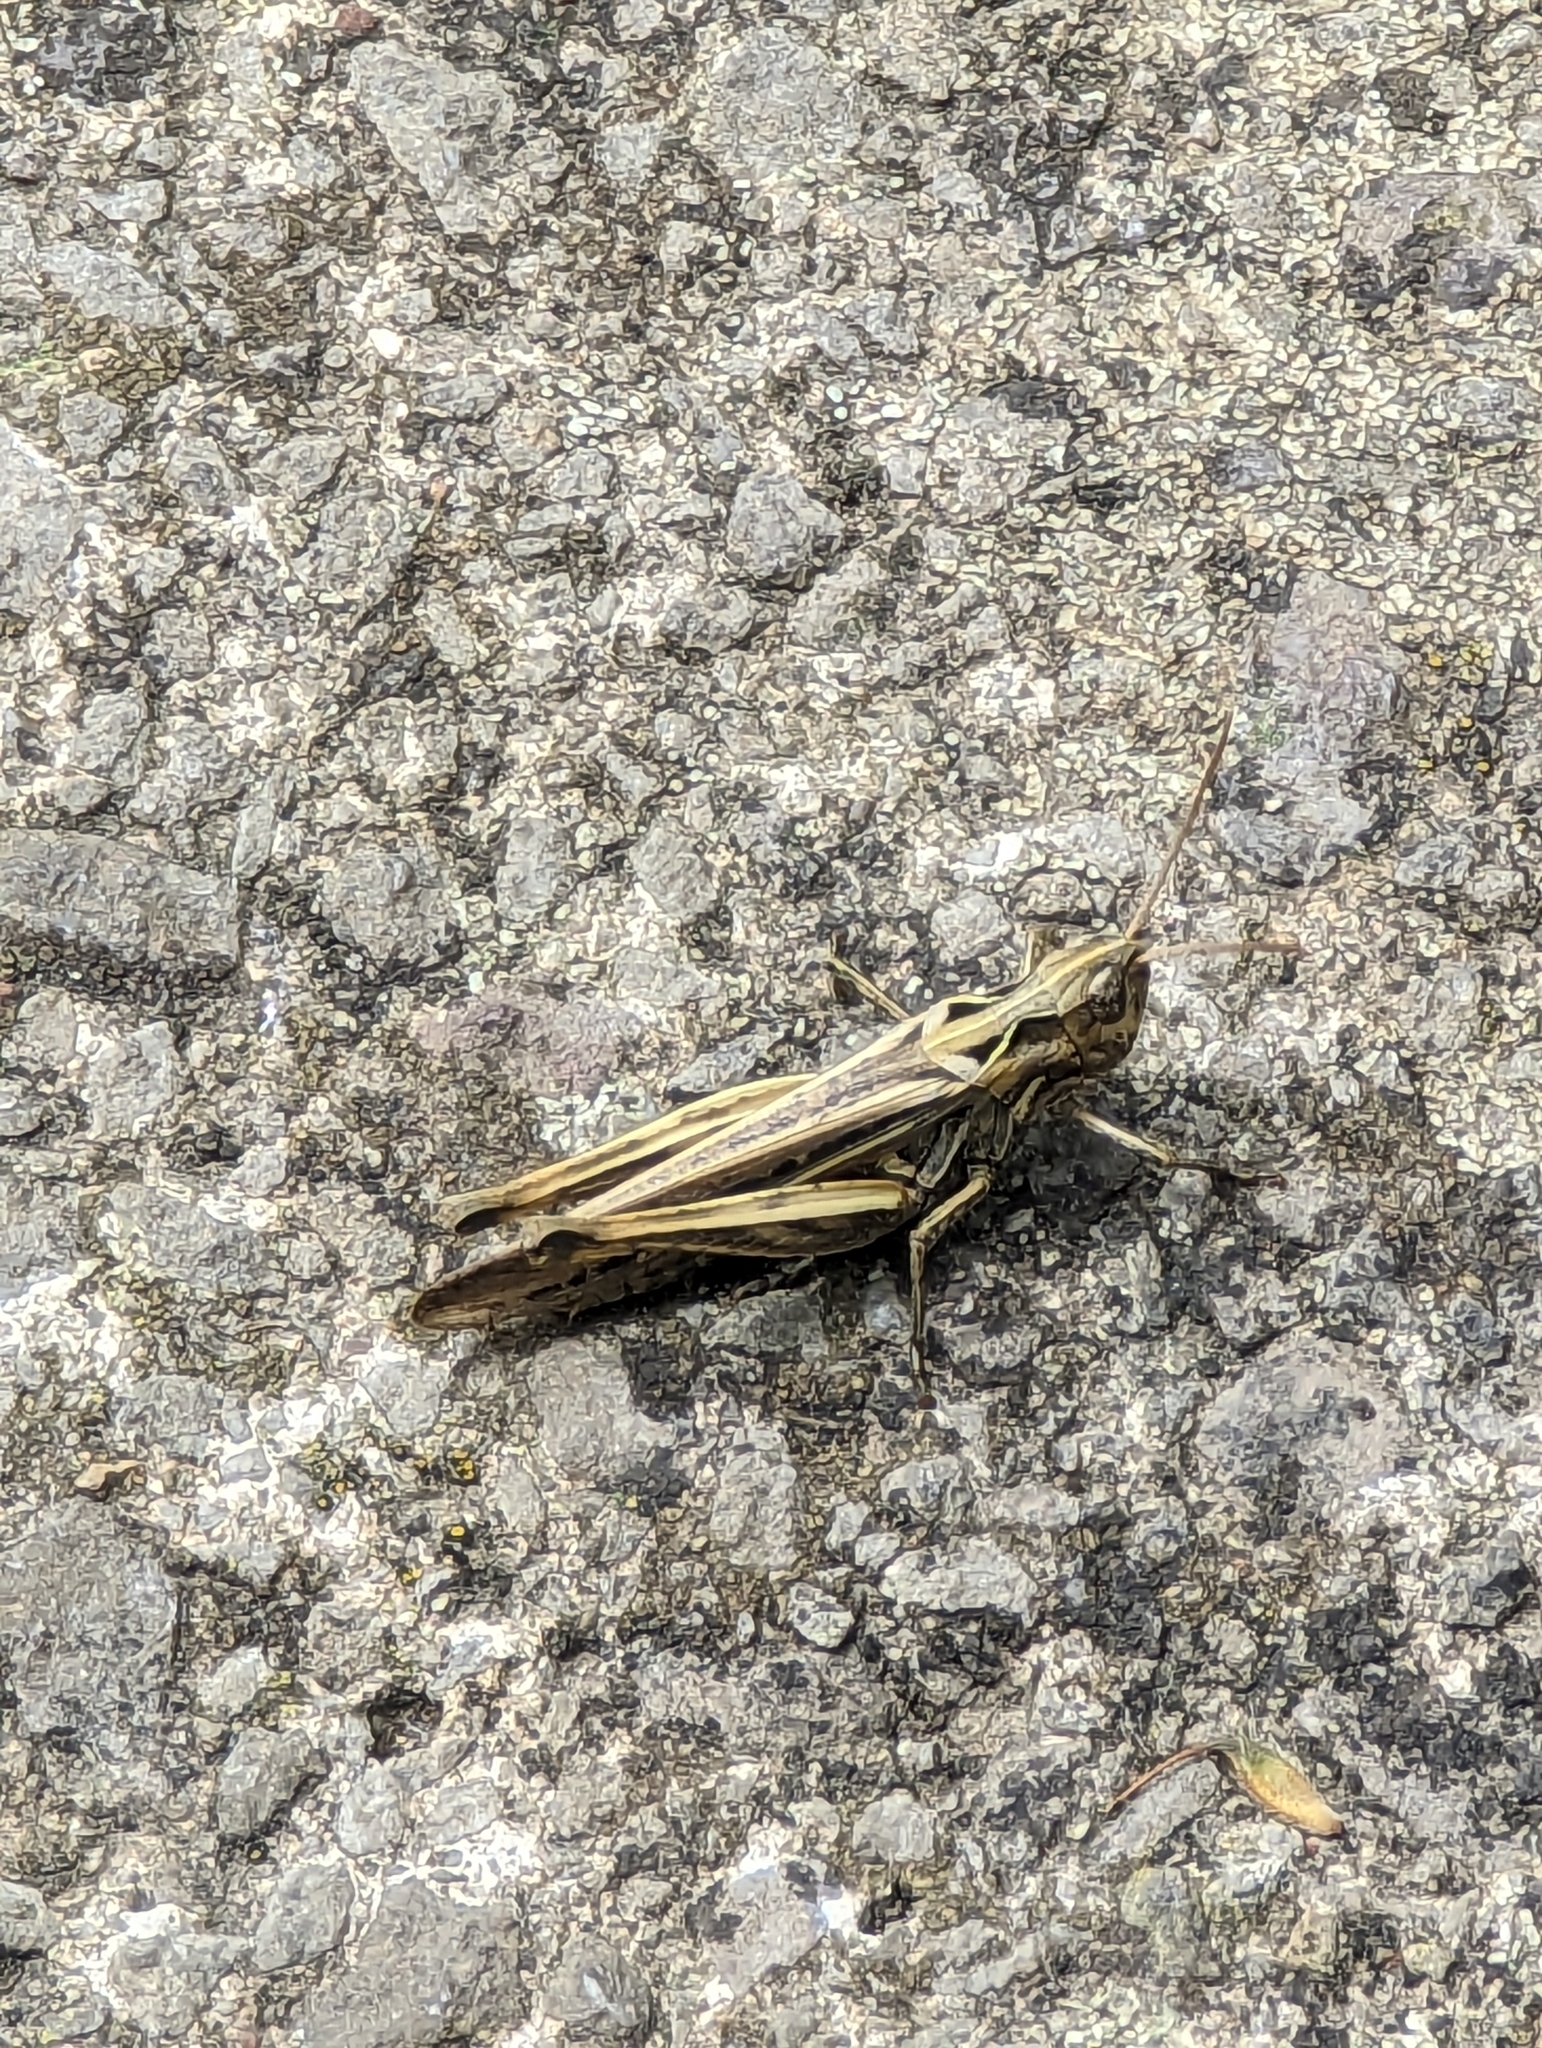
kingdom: Animalia
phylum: Arthropoda
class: Insecta
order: Orthoptera
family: Acrididae
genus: Chorthippus
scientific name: Chorthippus brunneus
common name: Field grasshopper
